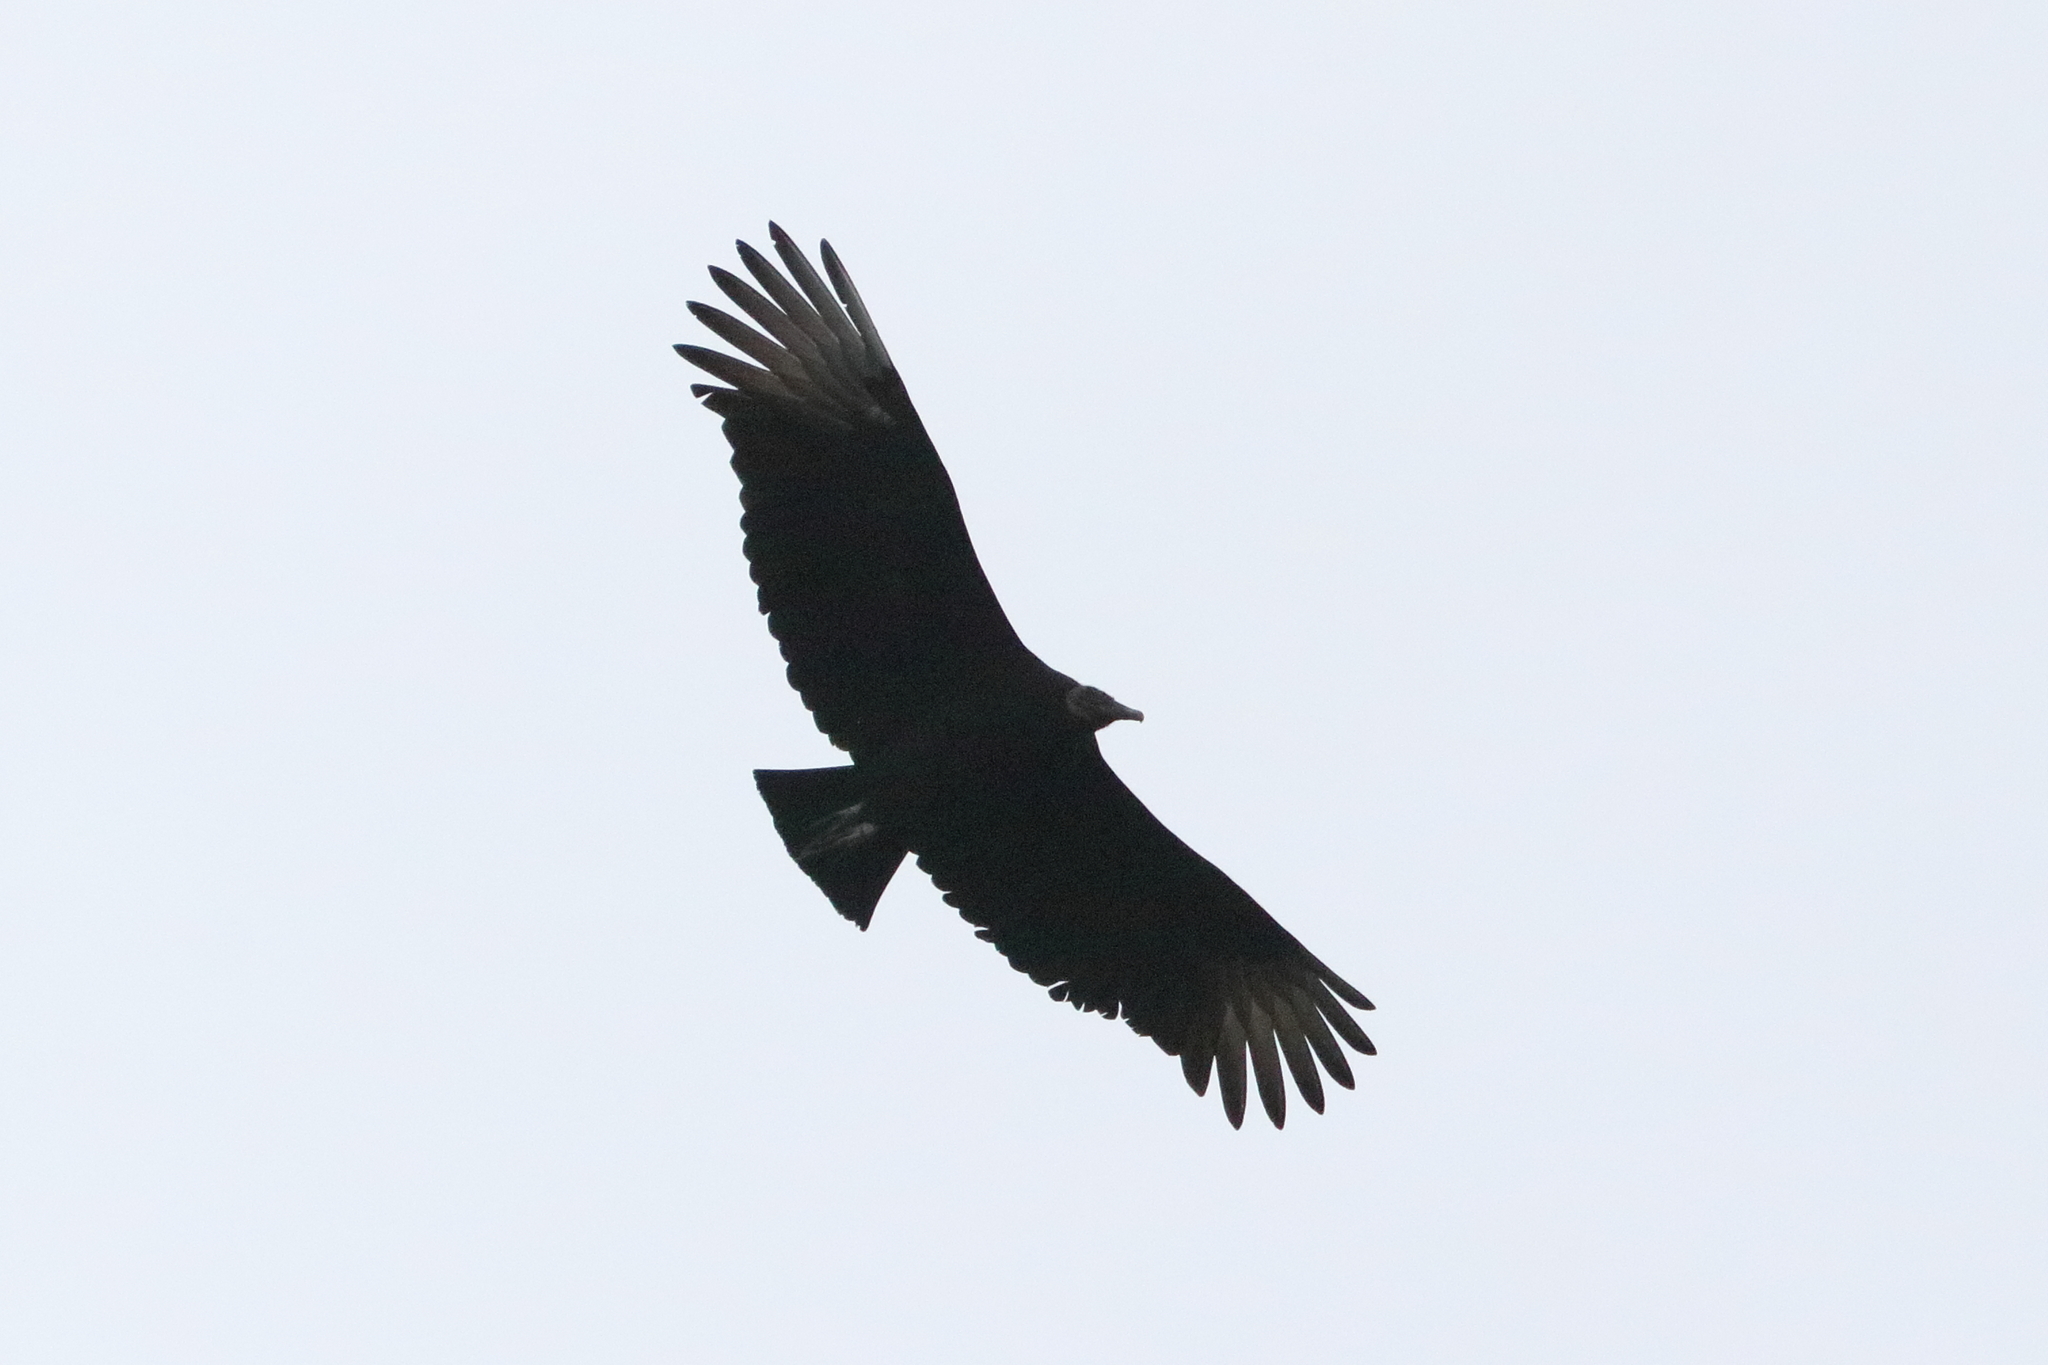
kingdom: Animalia
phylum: Chordata
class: Aves
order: Accipitriformes
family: Cathartidae
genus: Coragyps
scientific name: Coragyps atratus
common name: Black vulture
